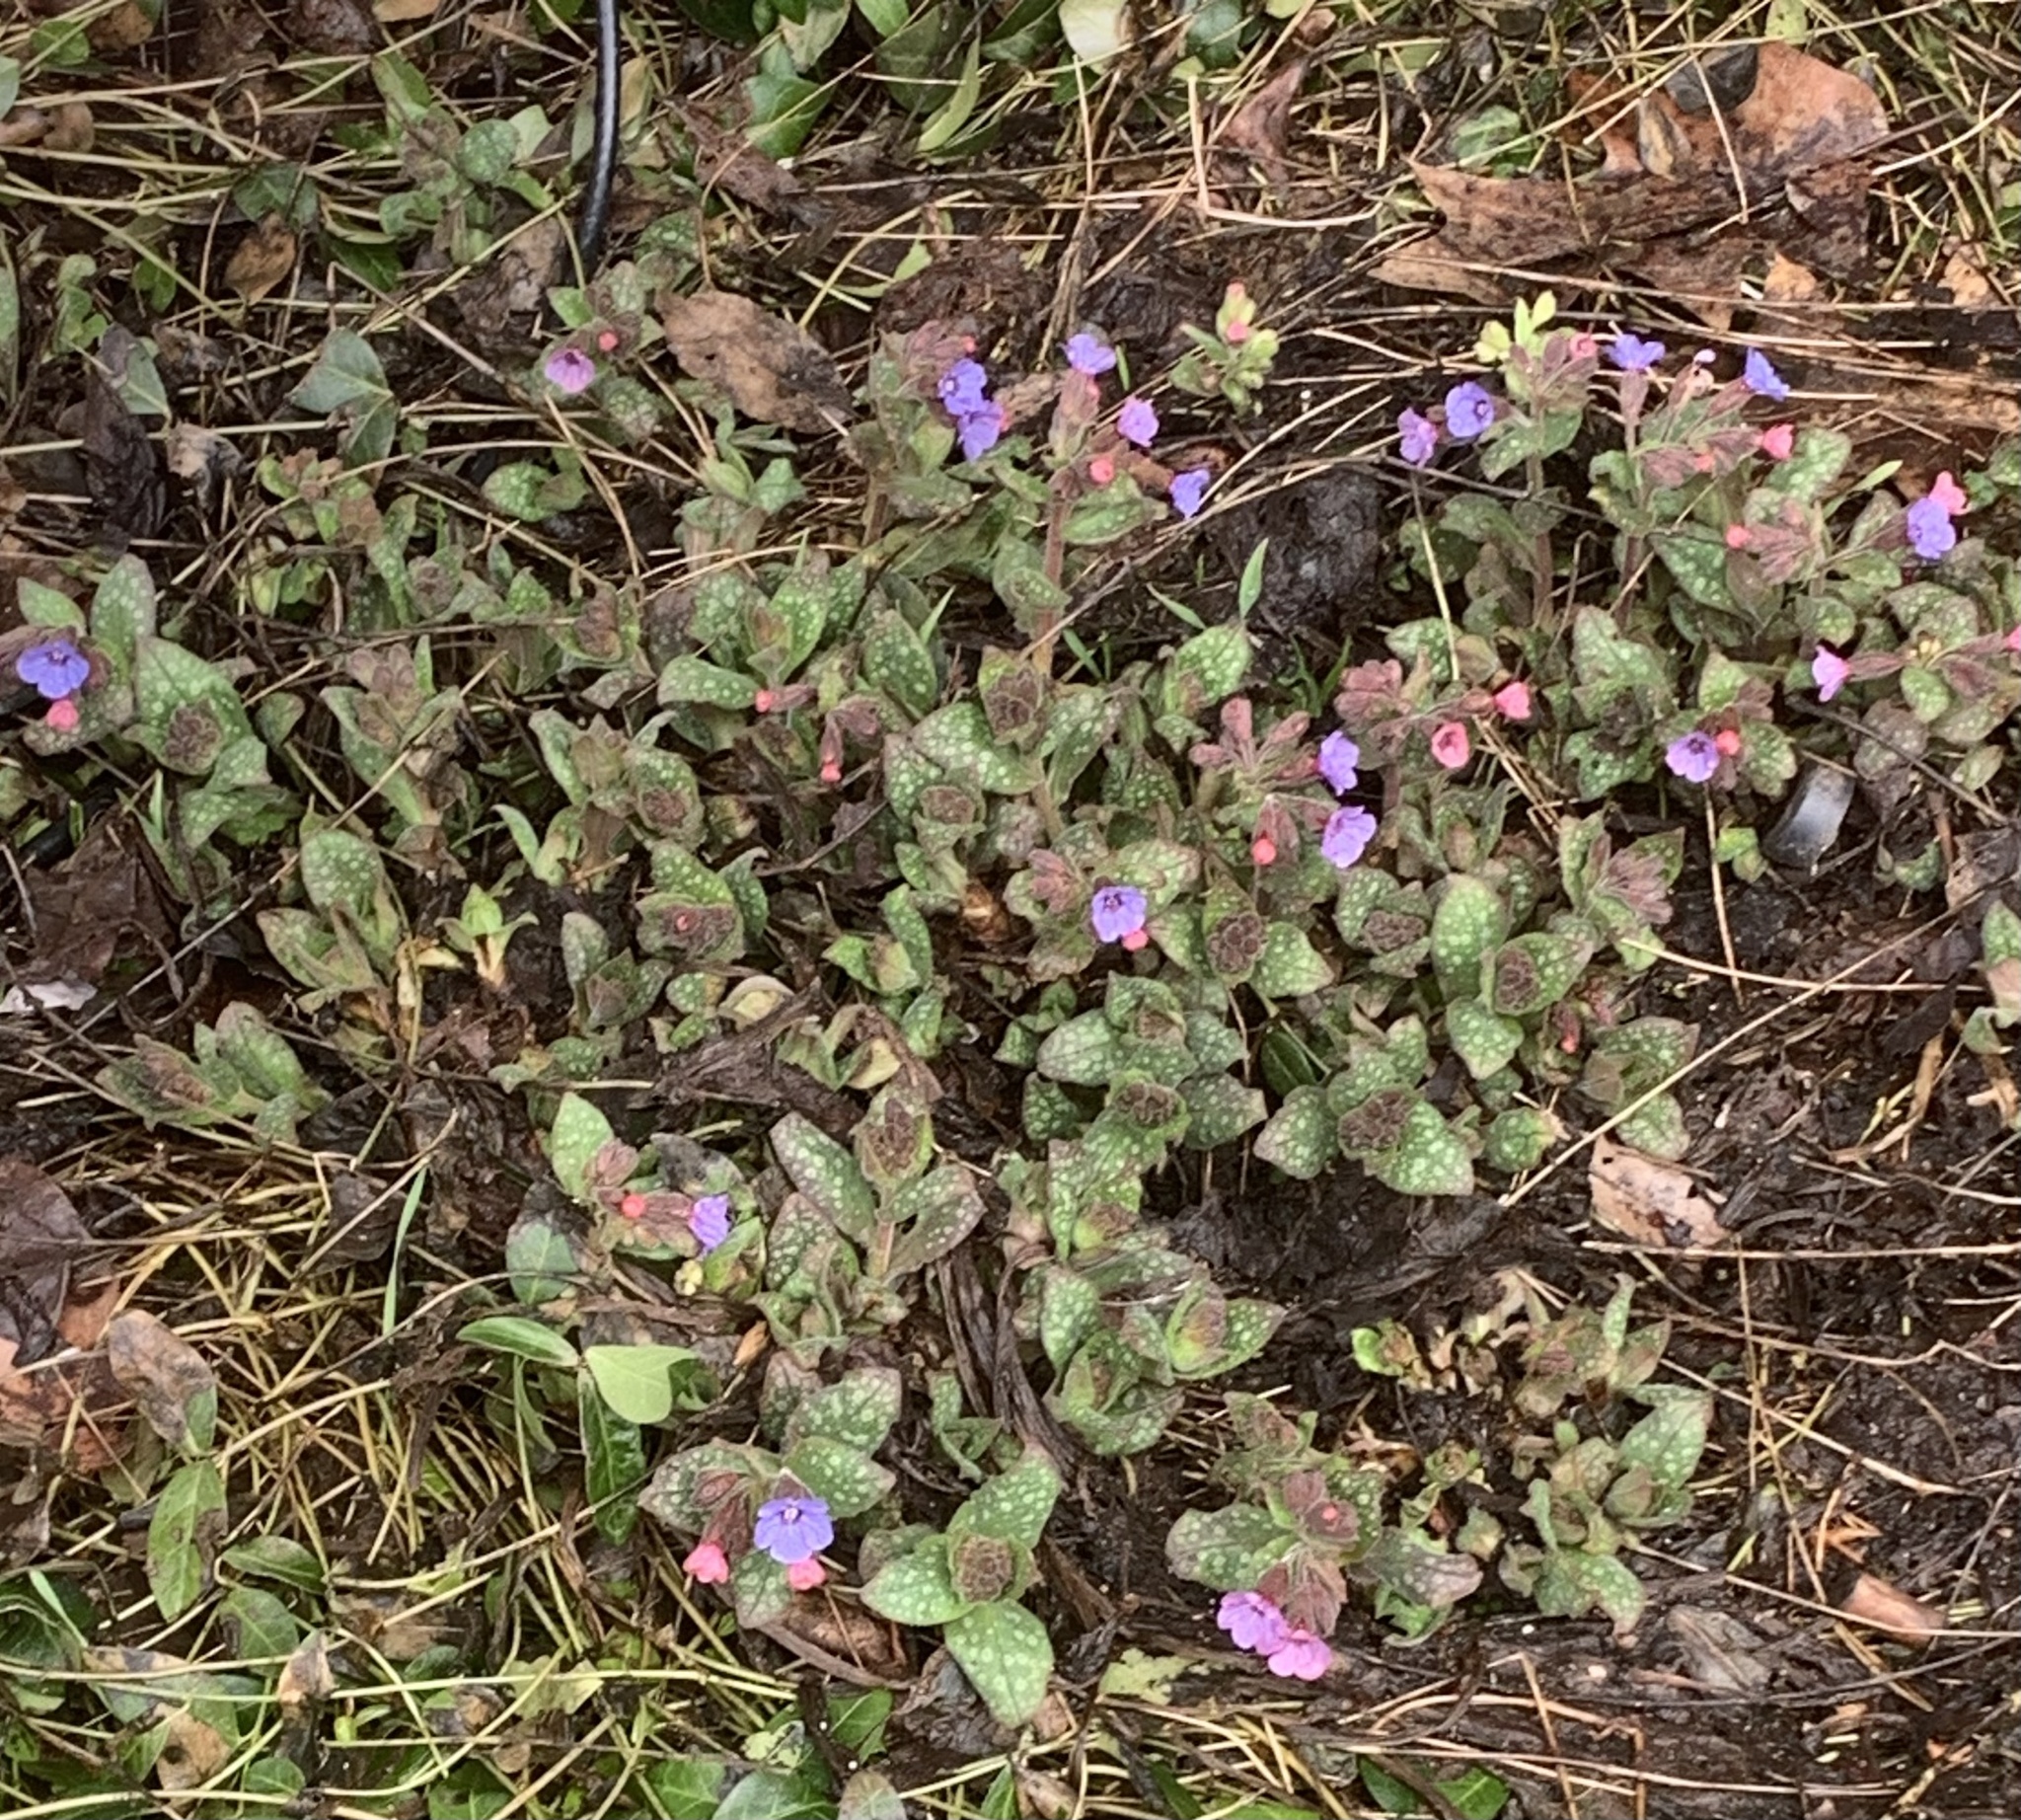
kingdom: Plantae
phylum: Tracheophyta
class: Magnoliopsida
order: Boraginales
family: Boraginaceae
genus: Pulmonaria
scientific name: Pulmonaria officinalis
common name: Lungwort
